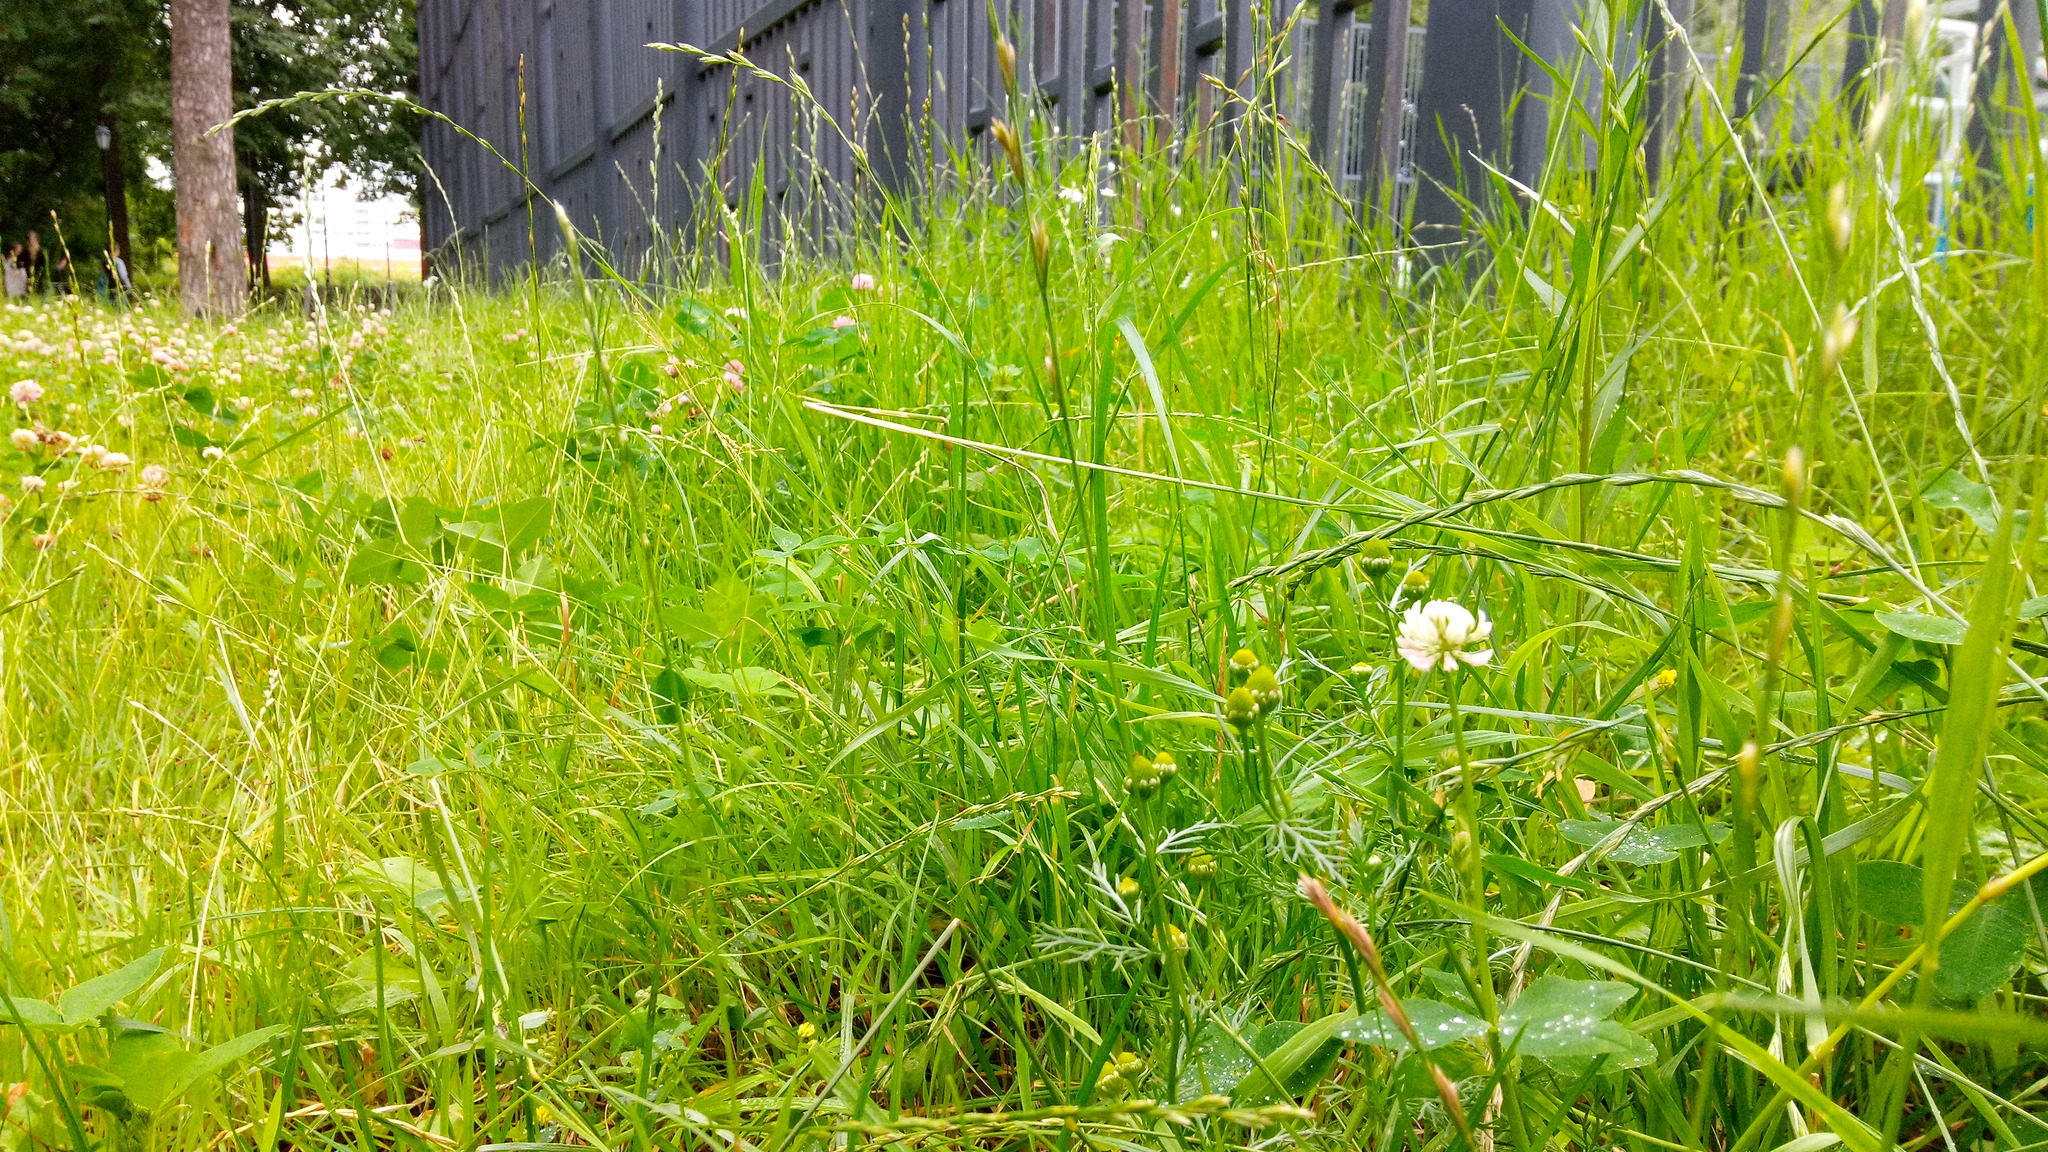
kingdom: Plantae
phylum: Tracheophyta
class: Magnoliopsida
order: Asterales
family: Asteraceae
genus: Matricaria
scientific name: Matricaria discoidea
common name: Disc mayweed
